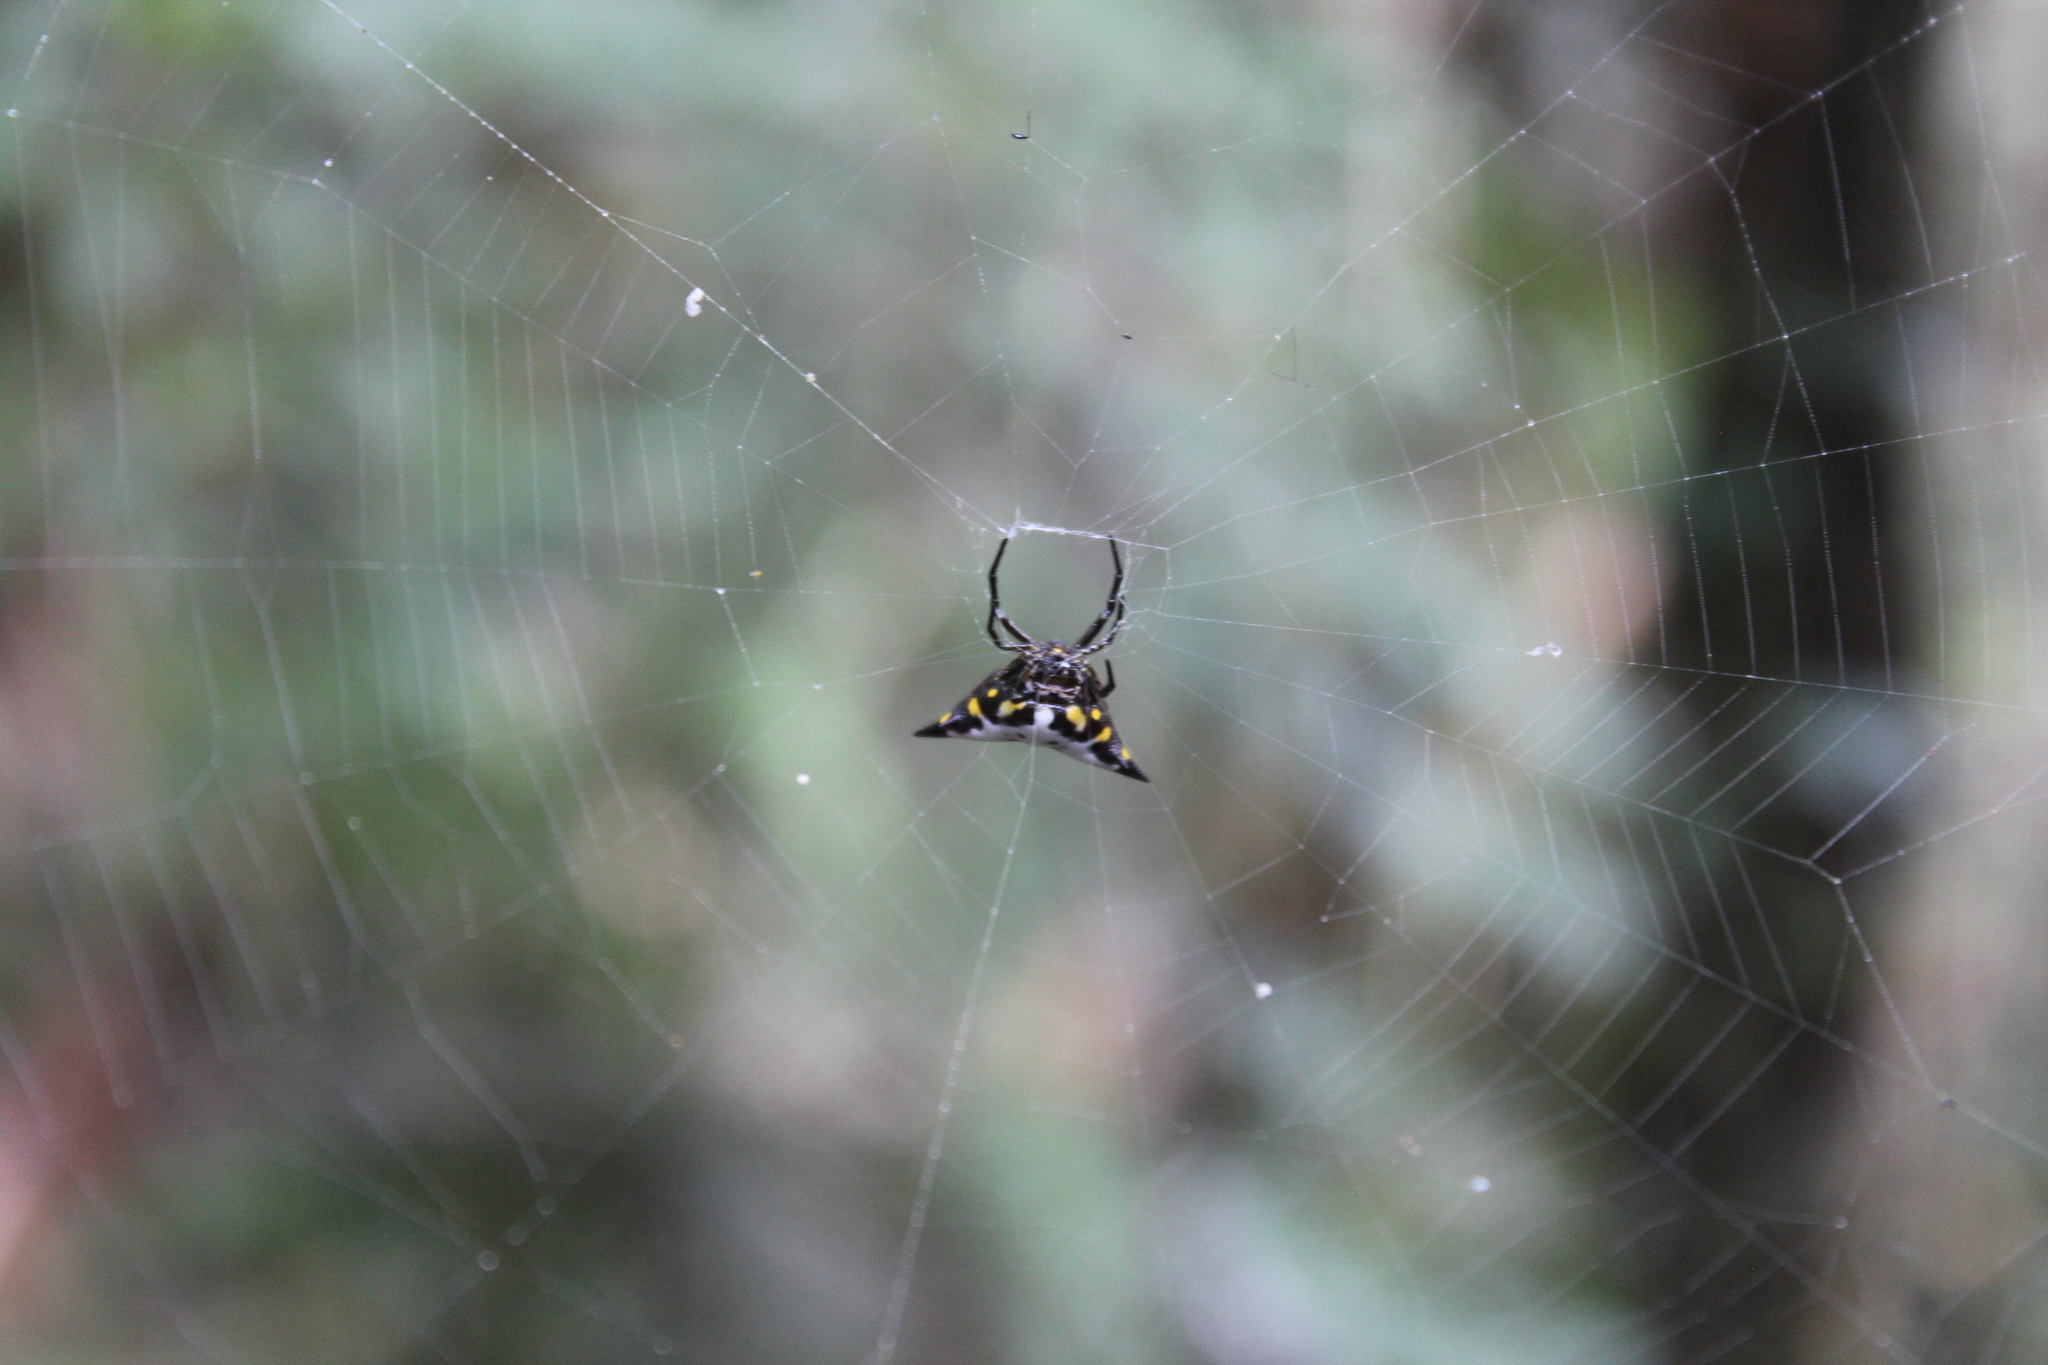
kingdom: Animalia
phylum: Arthropoda
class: Arachnida
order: Araneae
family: Araneidae
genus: Acrosomoides
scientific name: Acrosomoides acrosomoides
